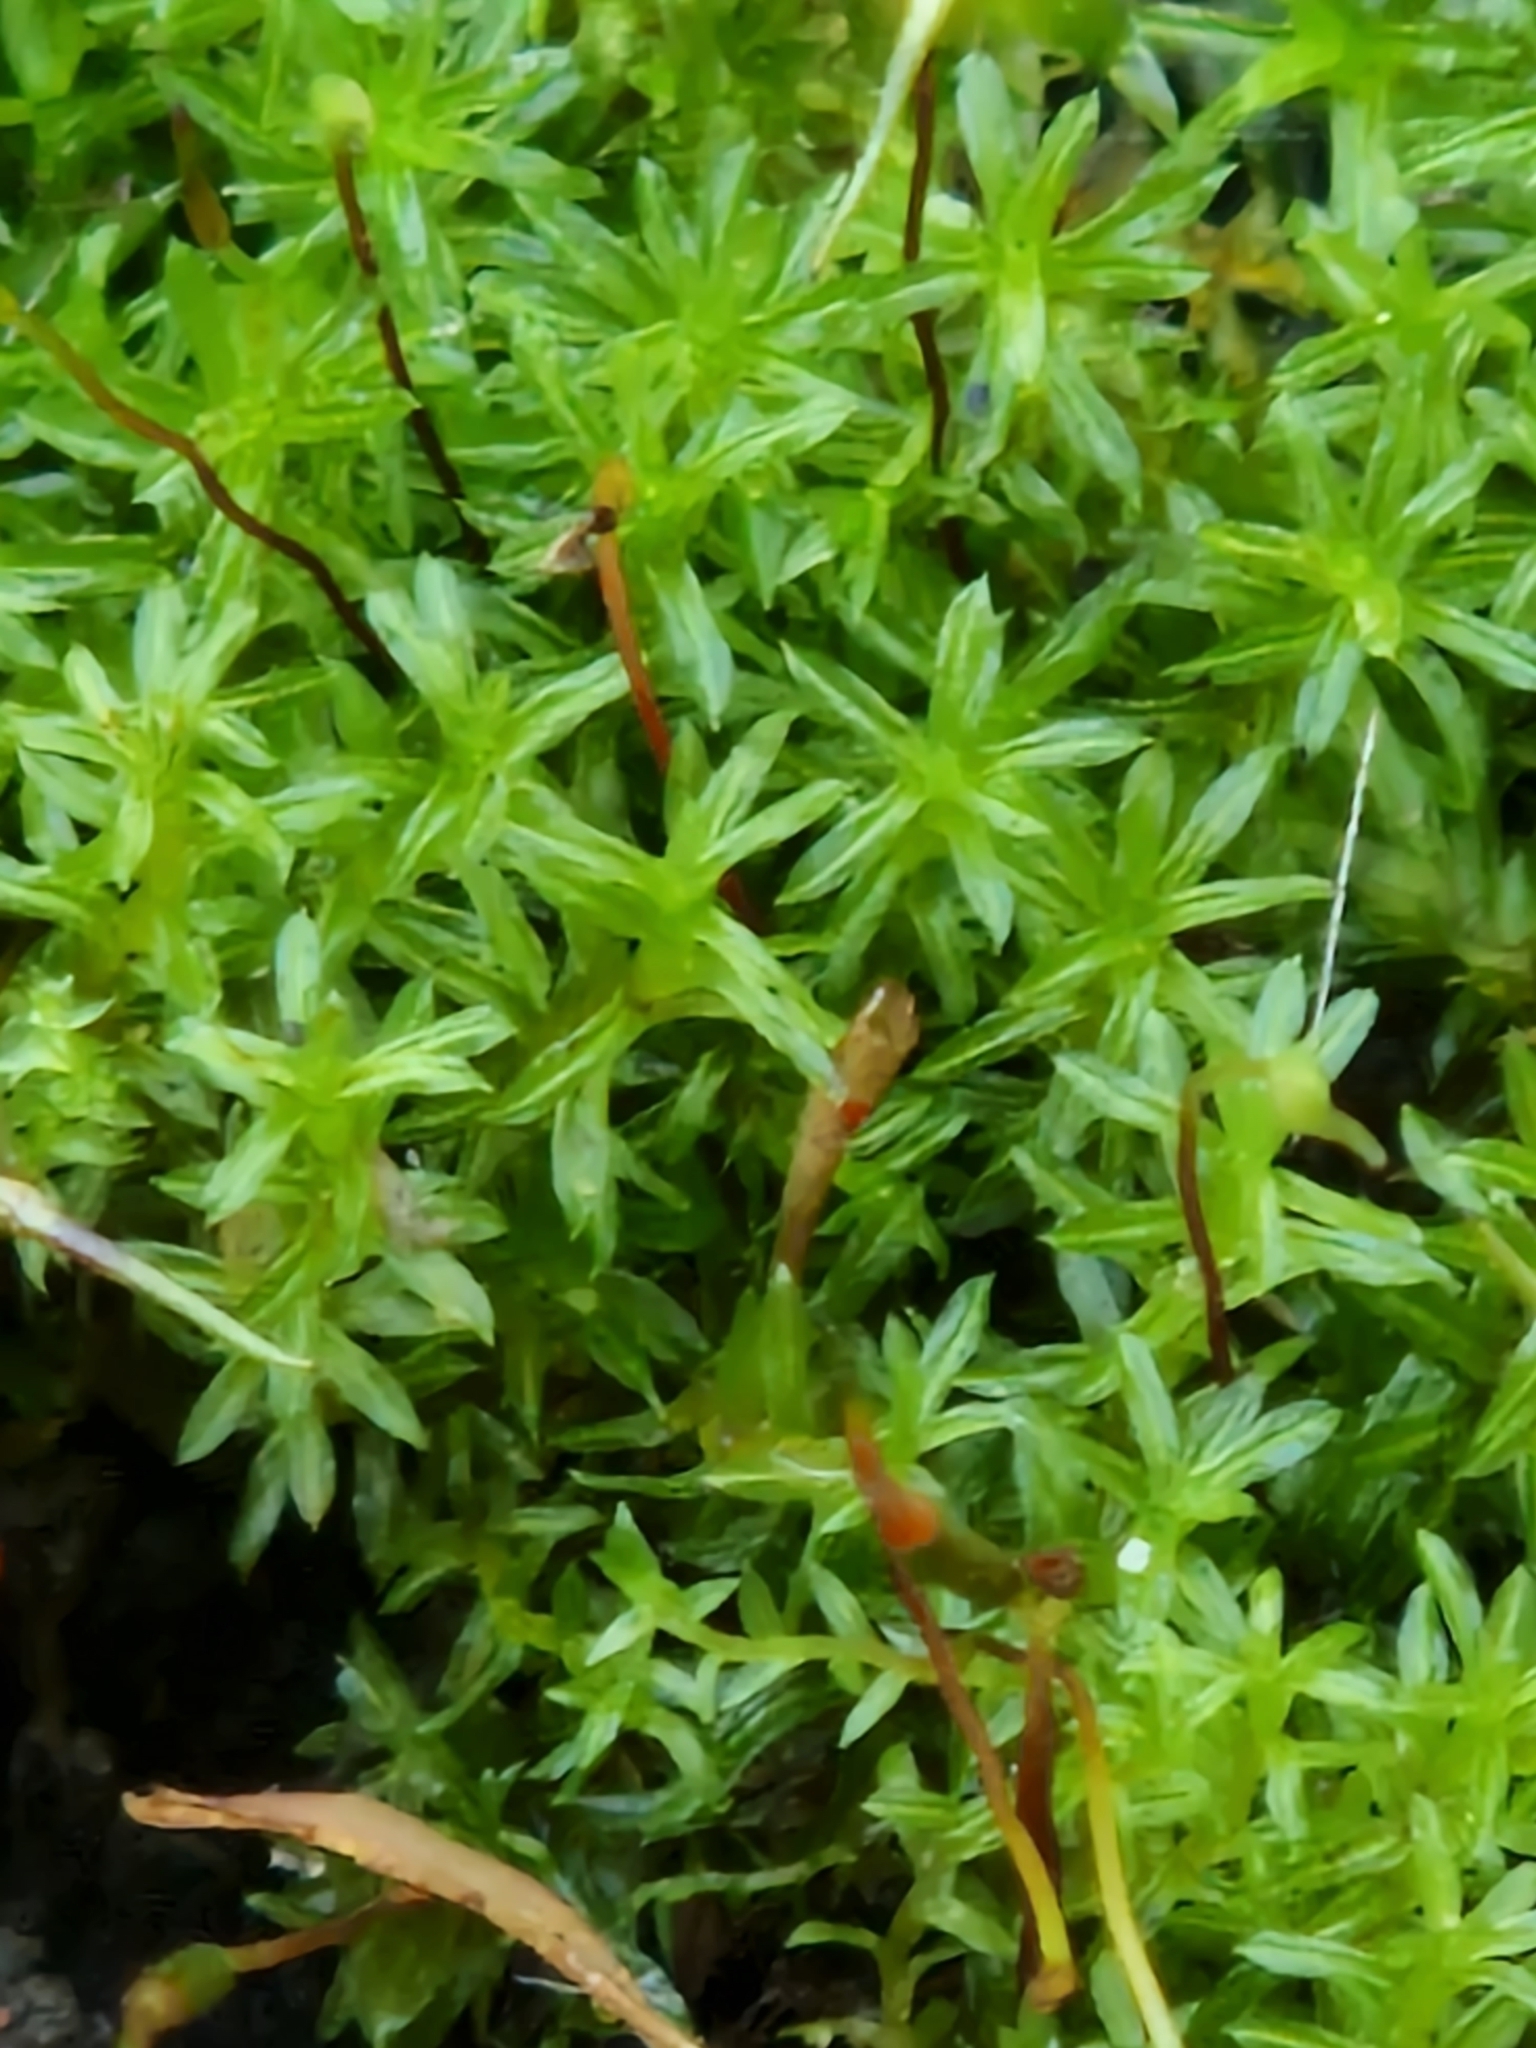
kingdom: Plantae
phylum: Bryophyta
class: Bryopsida
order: Pottiales
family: Pottiaceae
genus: Barbula
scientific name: Barbula unguiculata
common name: Prickly beard moss
